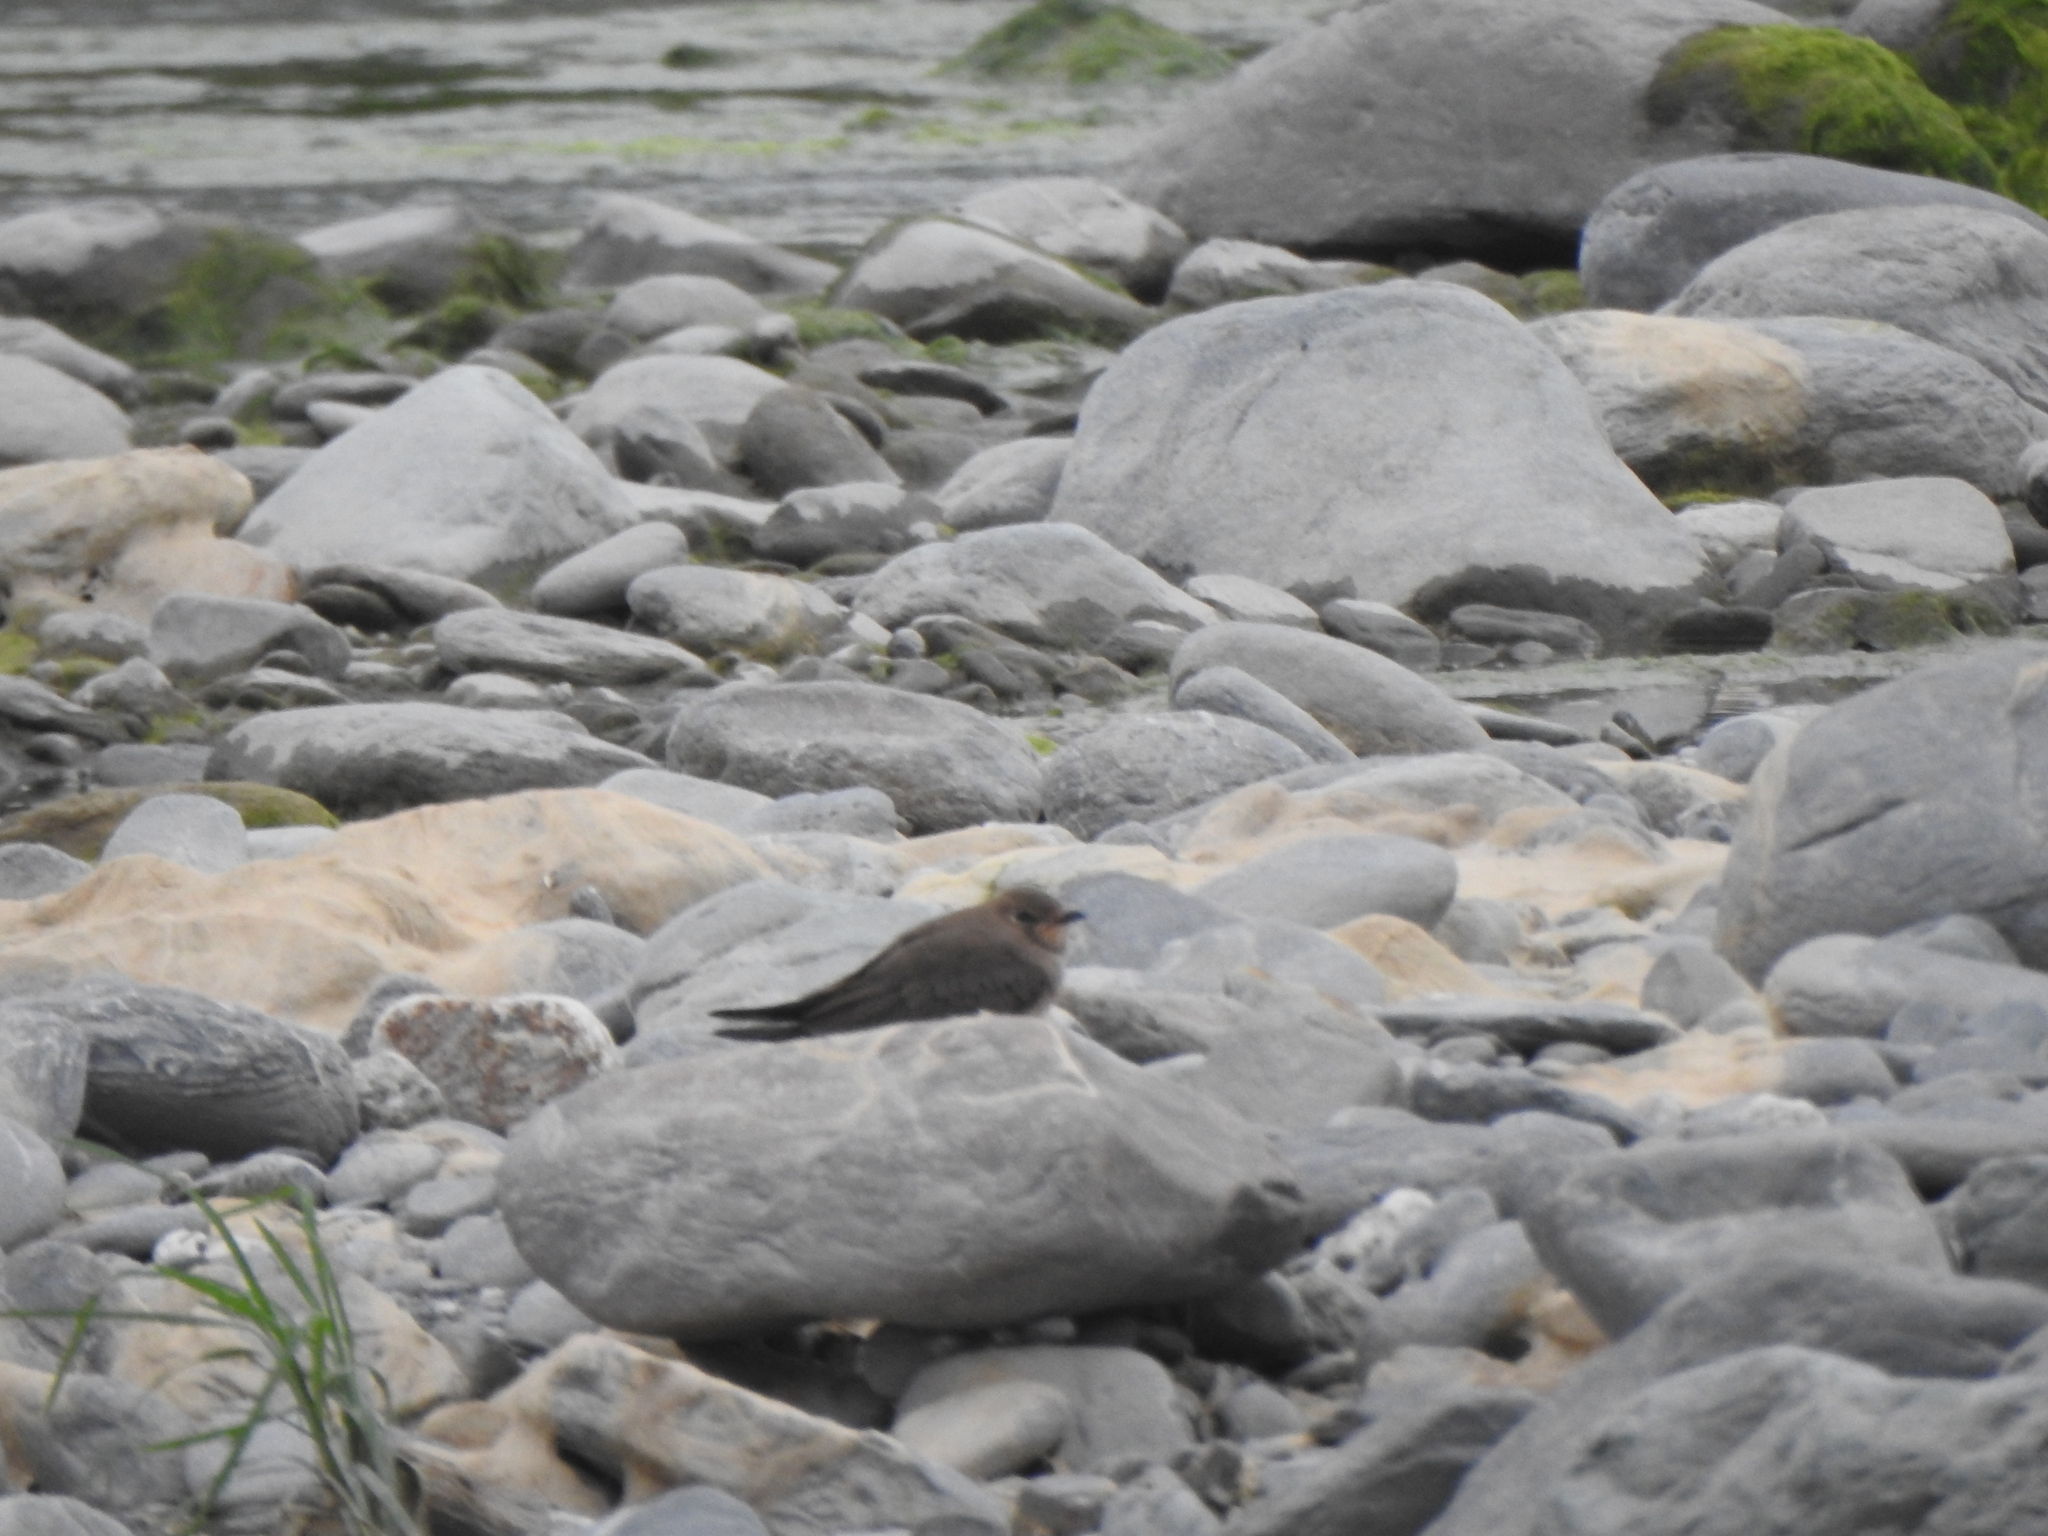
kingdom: Animalia
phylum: Chordata
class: Aves
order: Charadriiformes
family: Glareolidae
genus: Glareola
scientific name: Glareola maldivarum
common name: Oriental pratincole
